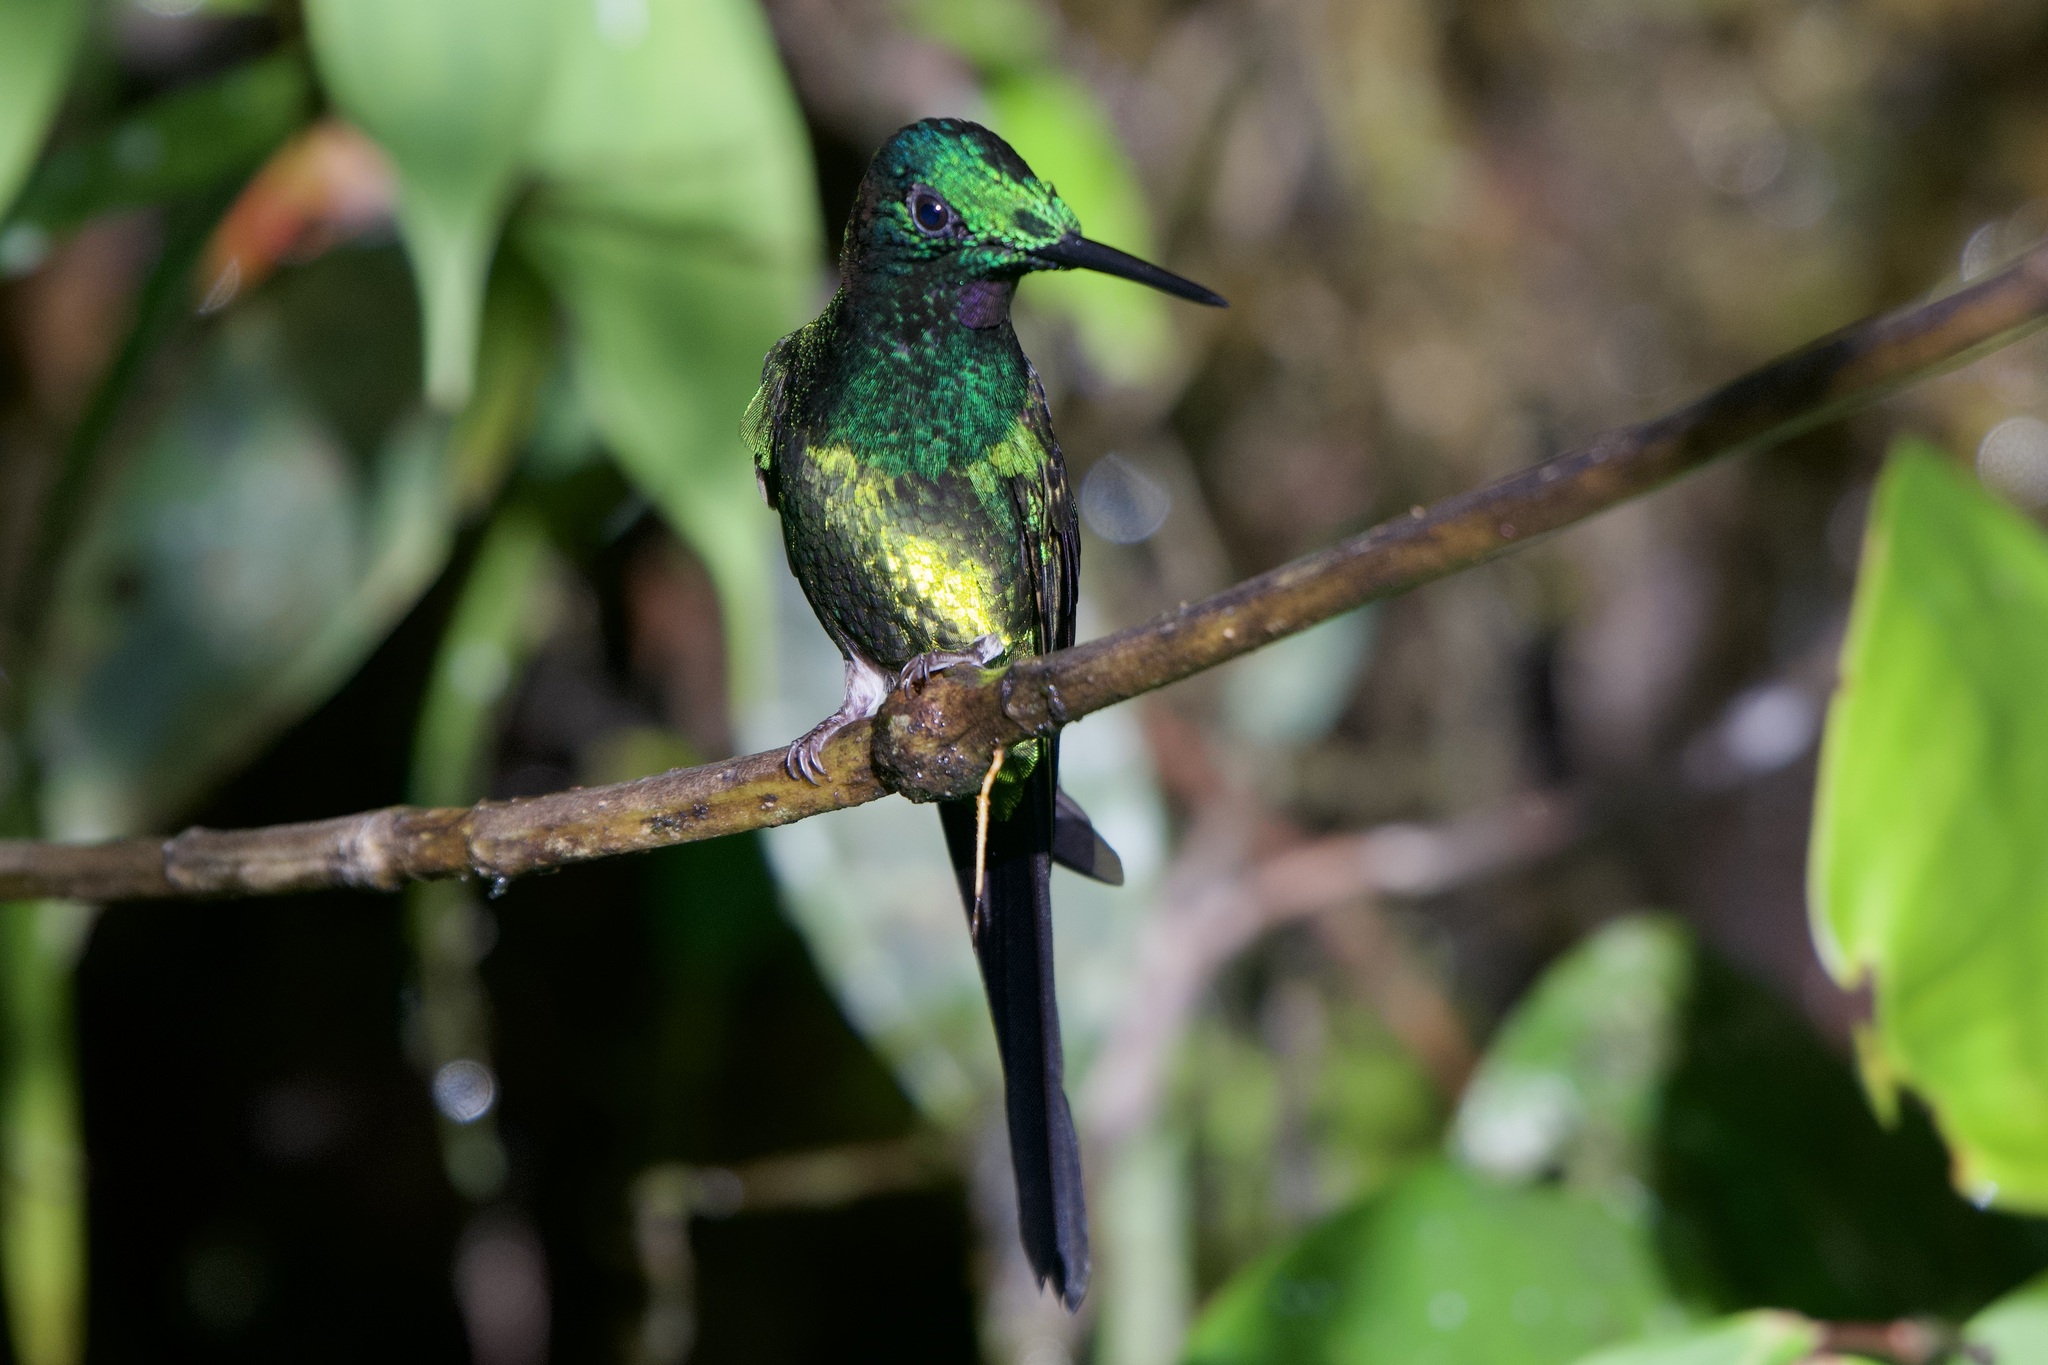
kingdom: Animalia
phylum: Chordata
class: Aves
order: Apodiformes
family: Trochilidae
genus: Heliodoxa
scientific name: Heliodoxa imperatrix
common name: Empress brilliant
